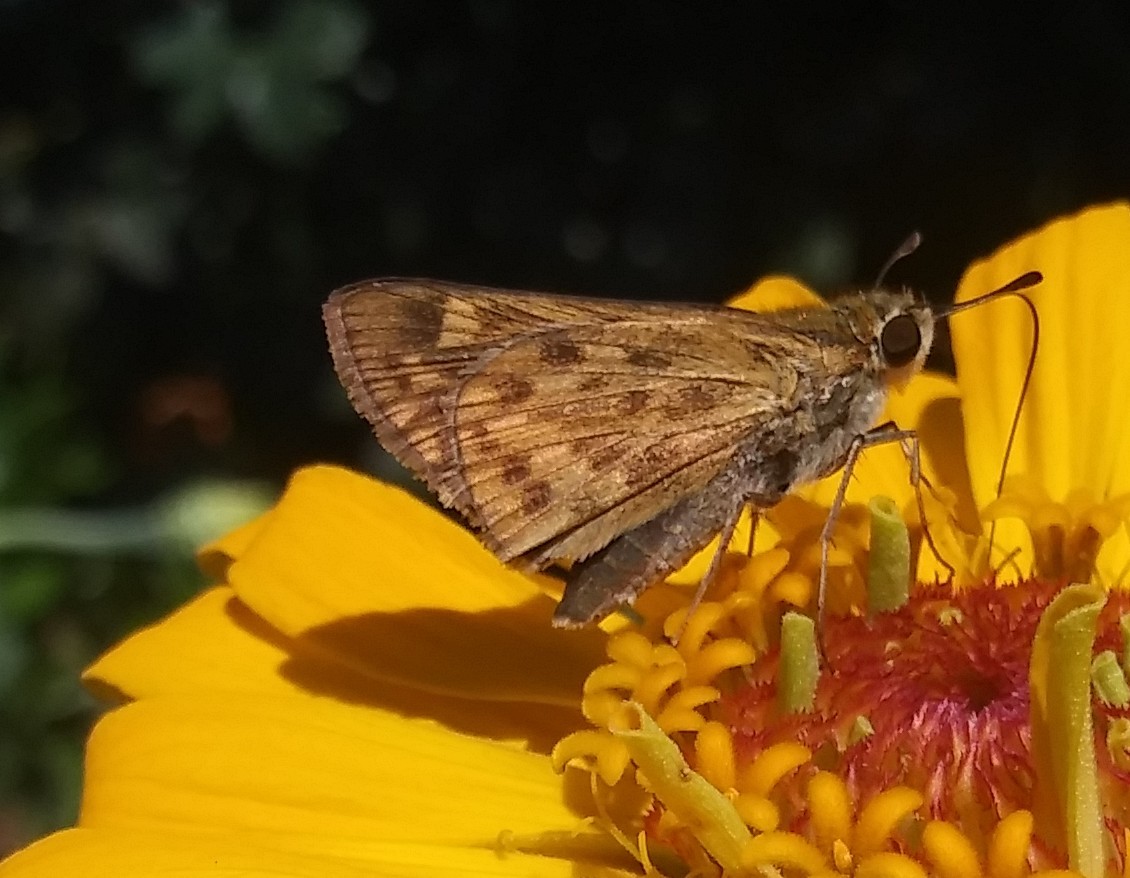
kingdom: Animalia
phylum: Arthropoda
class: Insecta
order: Lepidoptera
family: Hesperiidae
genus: Hylephila
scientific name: Hylephila phyleus
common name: Fiery skipper
